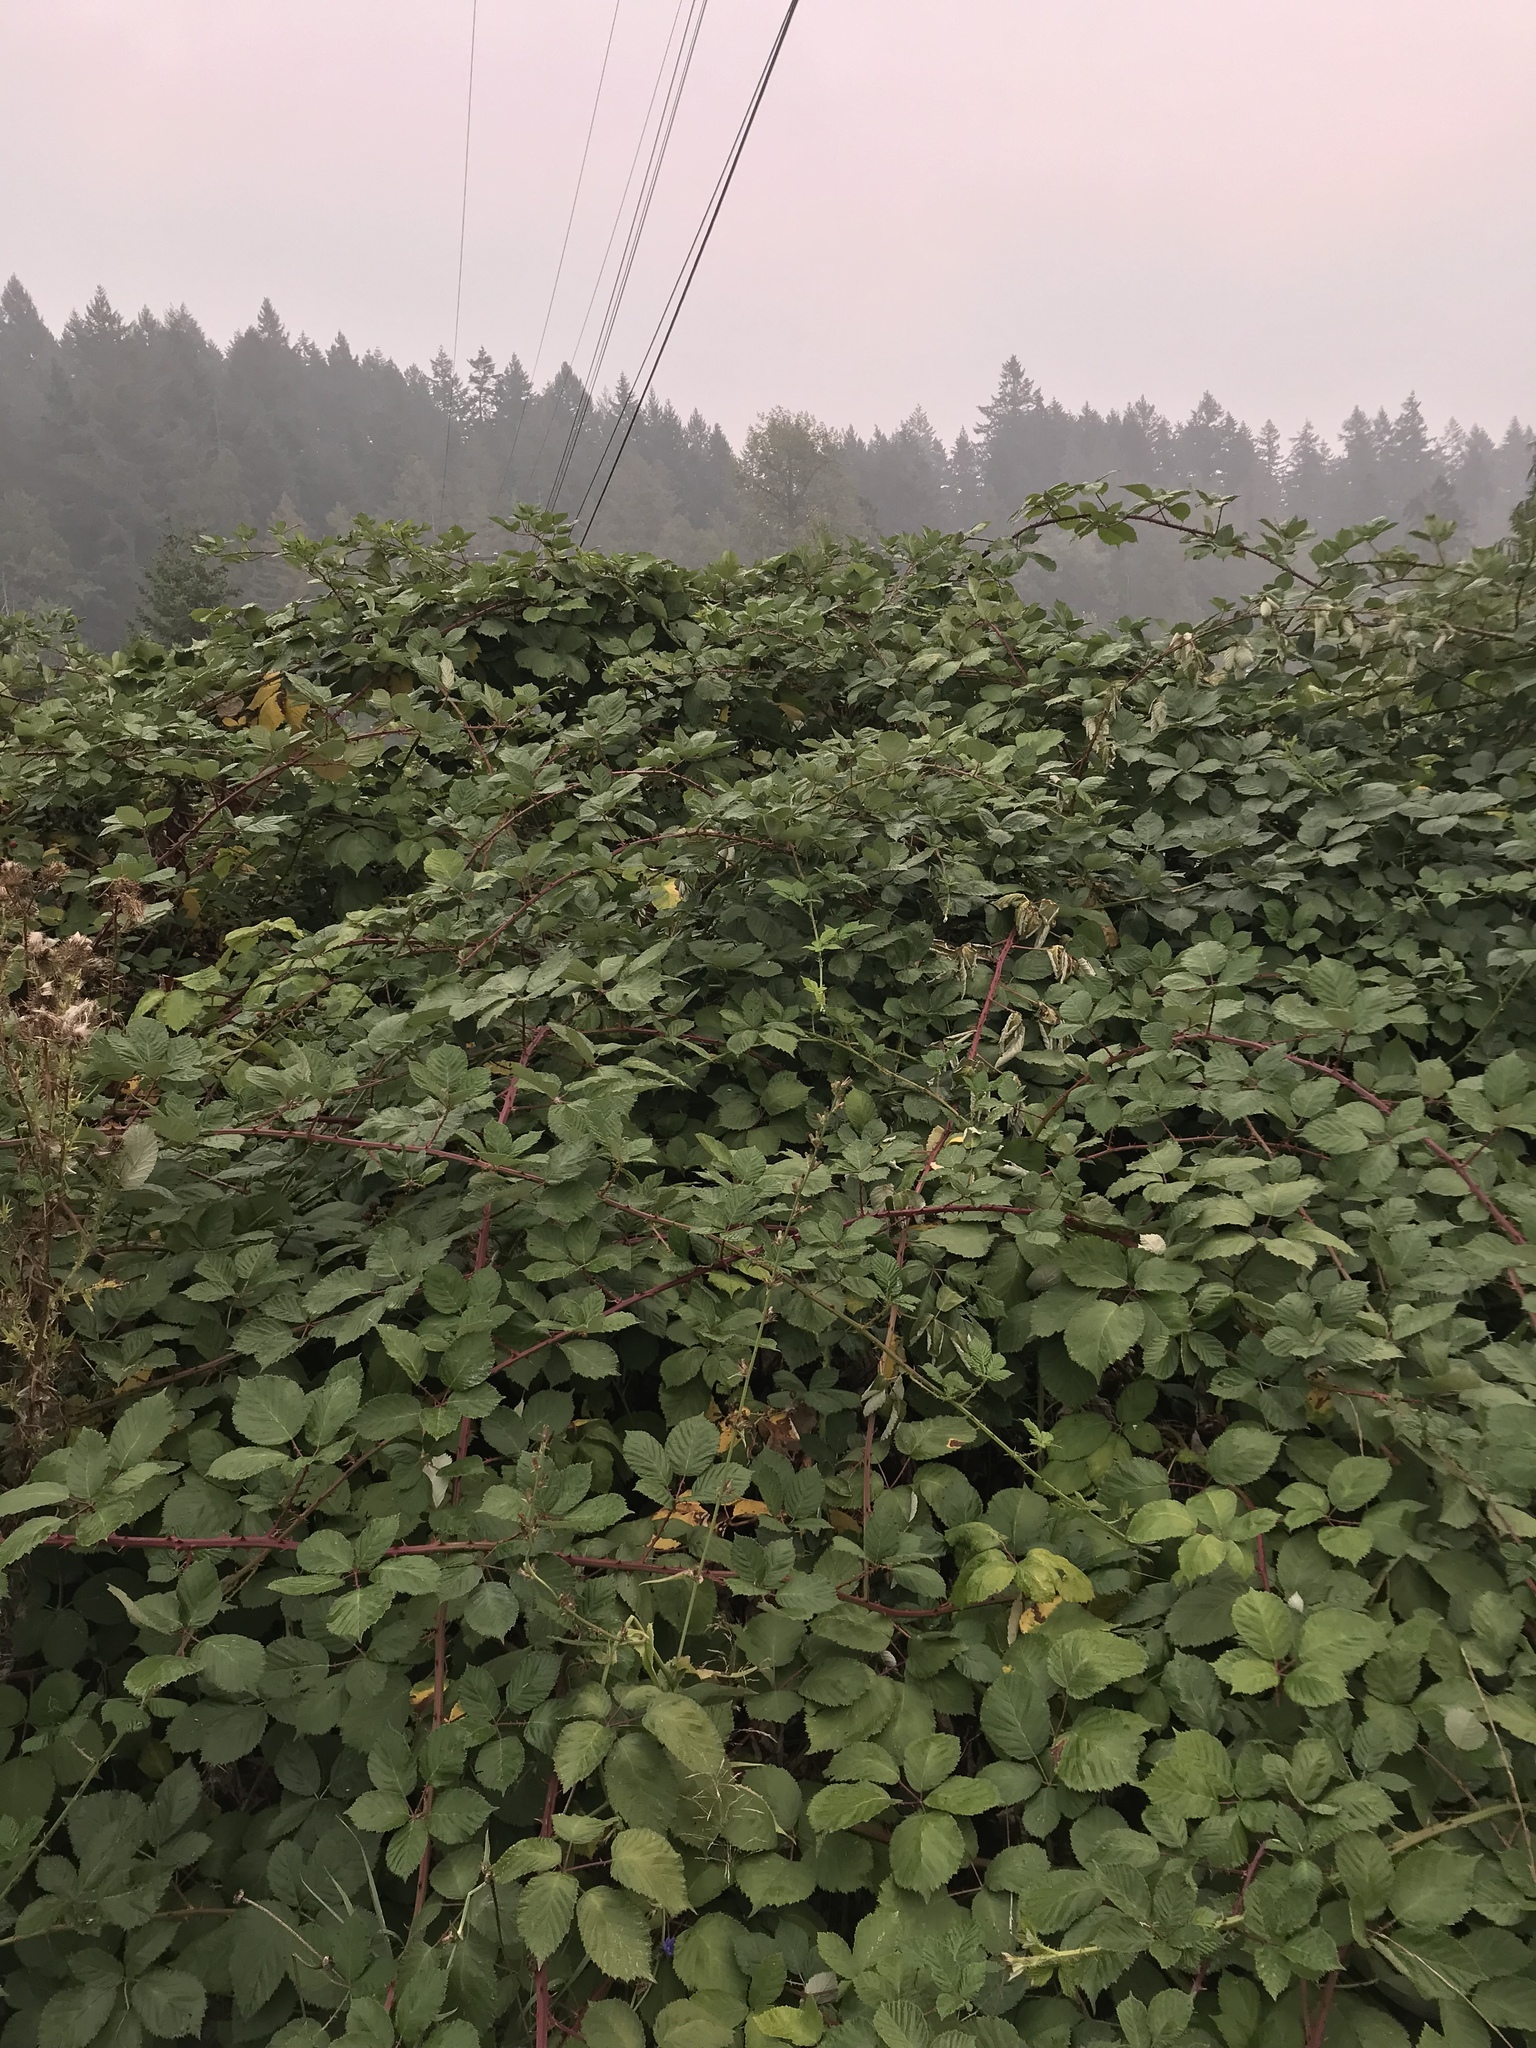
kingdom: Plantae
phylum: Tracheophyta
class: Magnoliopsida
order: Rosales
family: Rosaceae
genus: Rubus
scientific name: Rubus bifrons
